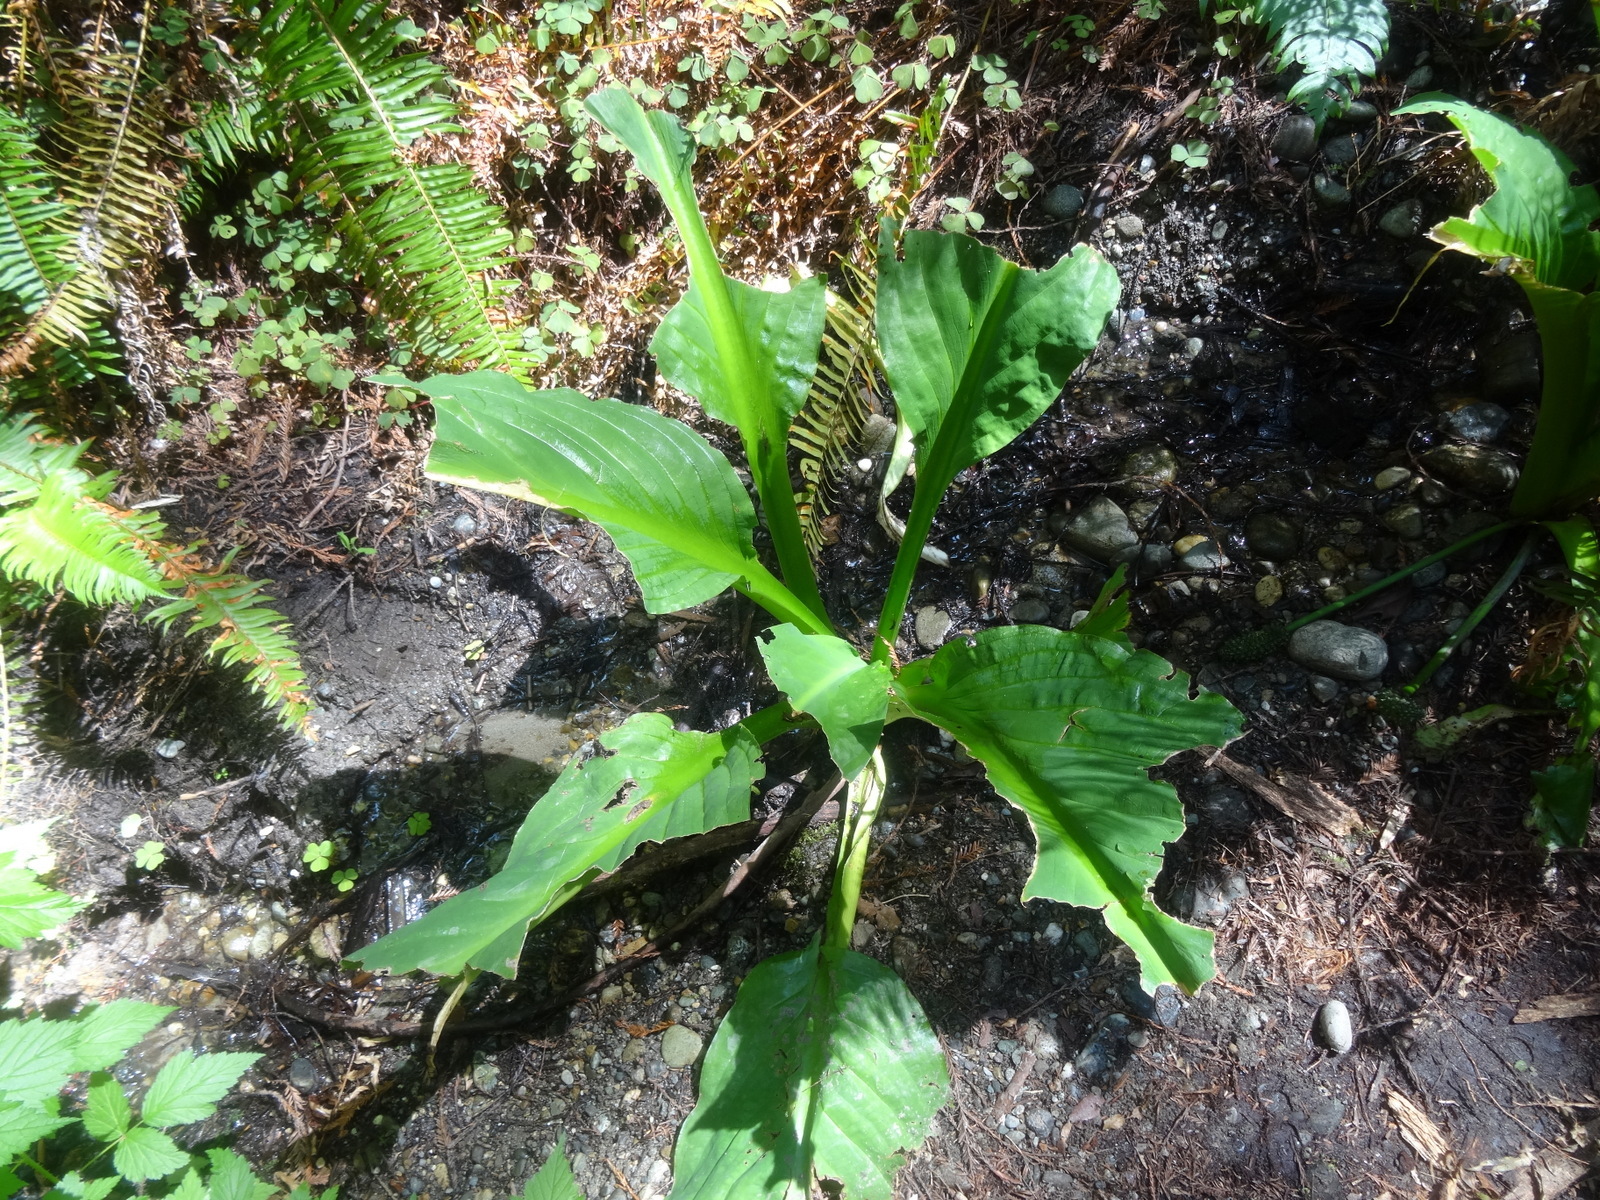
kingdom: Plantae
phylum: Tracheophyta
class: Liliopsida
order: Alismatales
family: Araceae
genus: Lysichiton
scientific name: Lysichiton americanus
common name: American skunk cabbage
